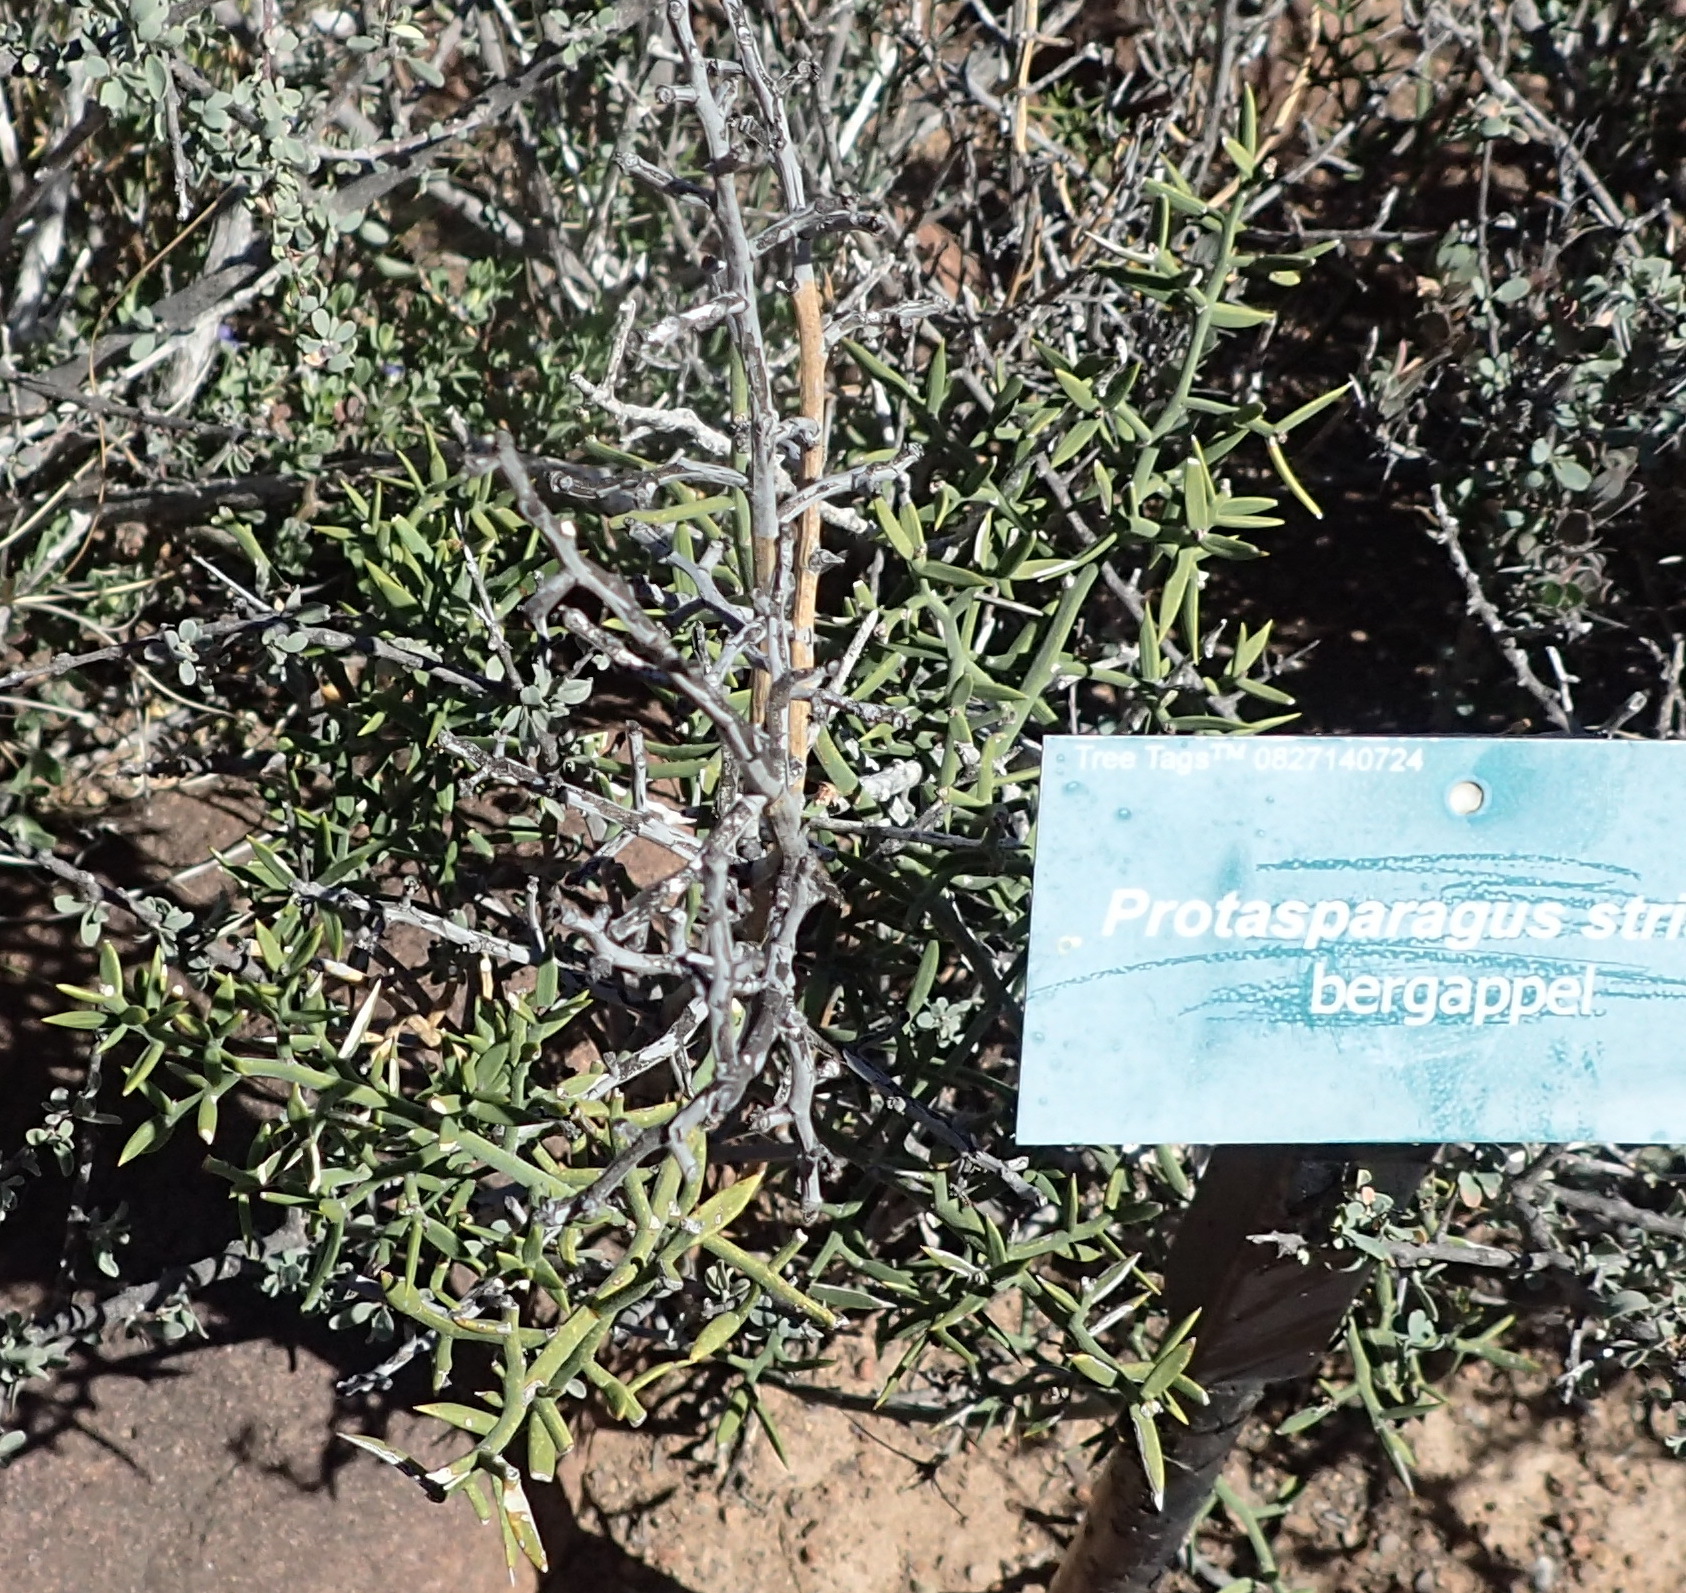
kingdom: Plantae
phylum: Tracheophyta
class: Liliopsida
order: Asparagales
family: Asparagaceae
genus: Asparagus
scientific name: Asparagus striatus
